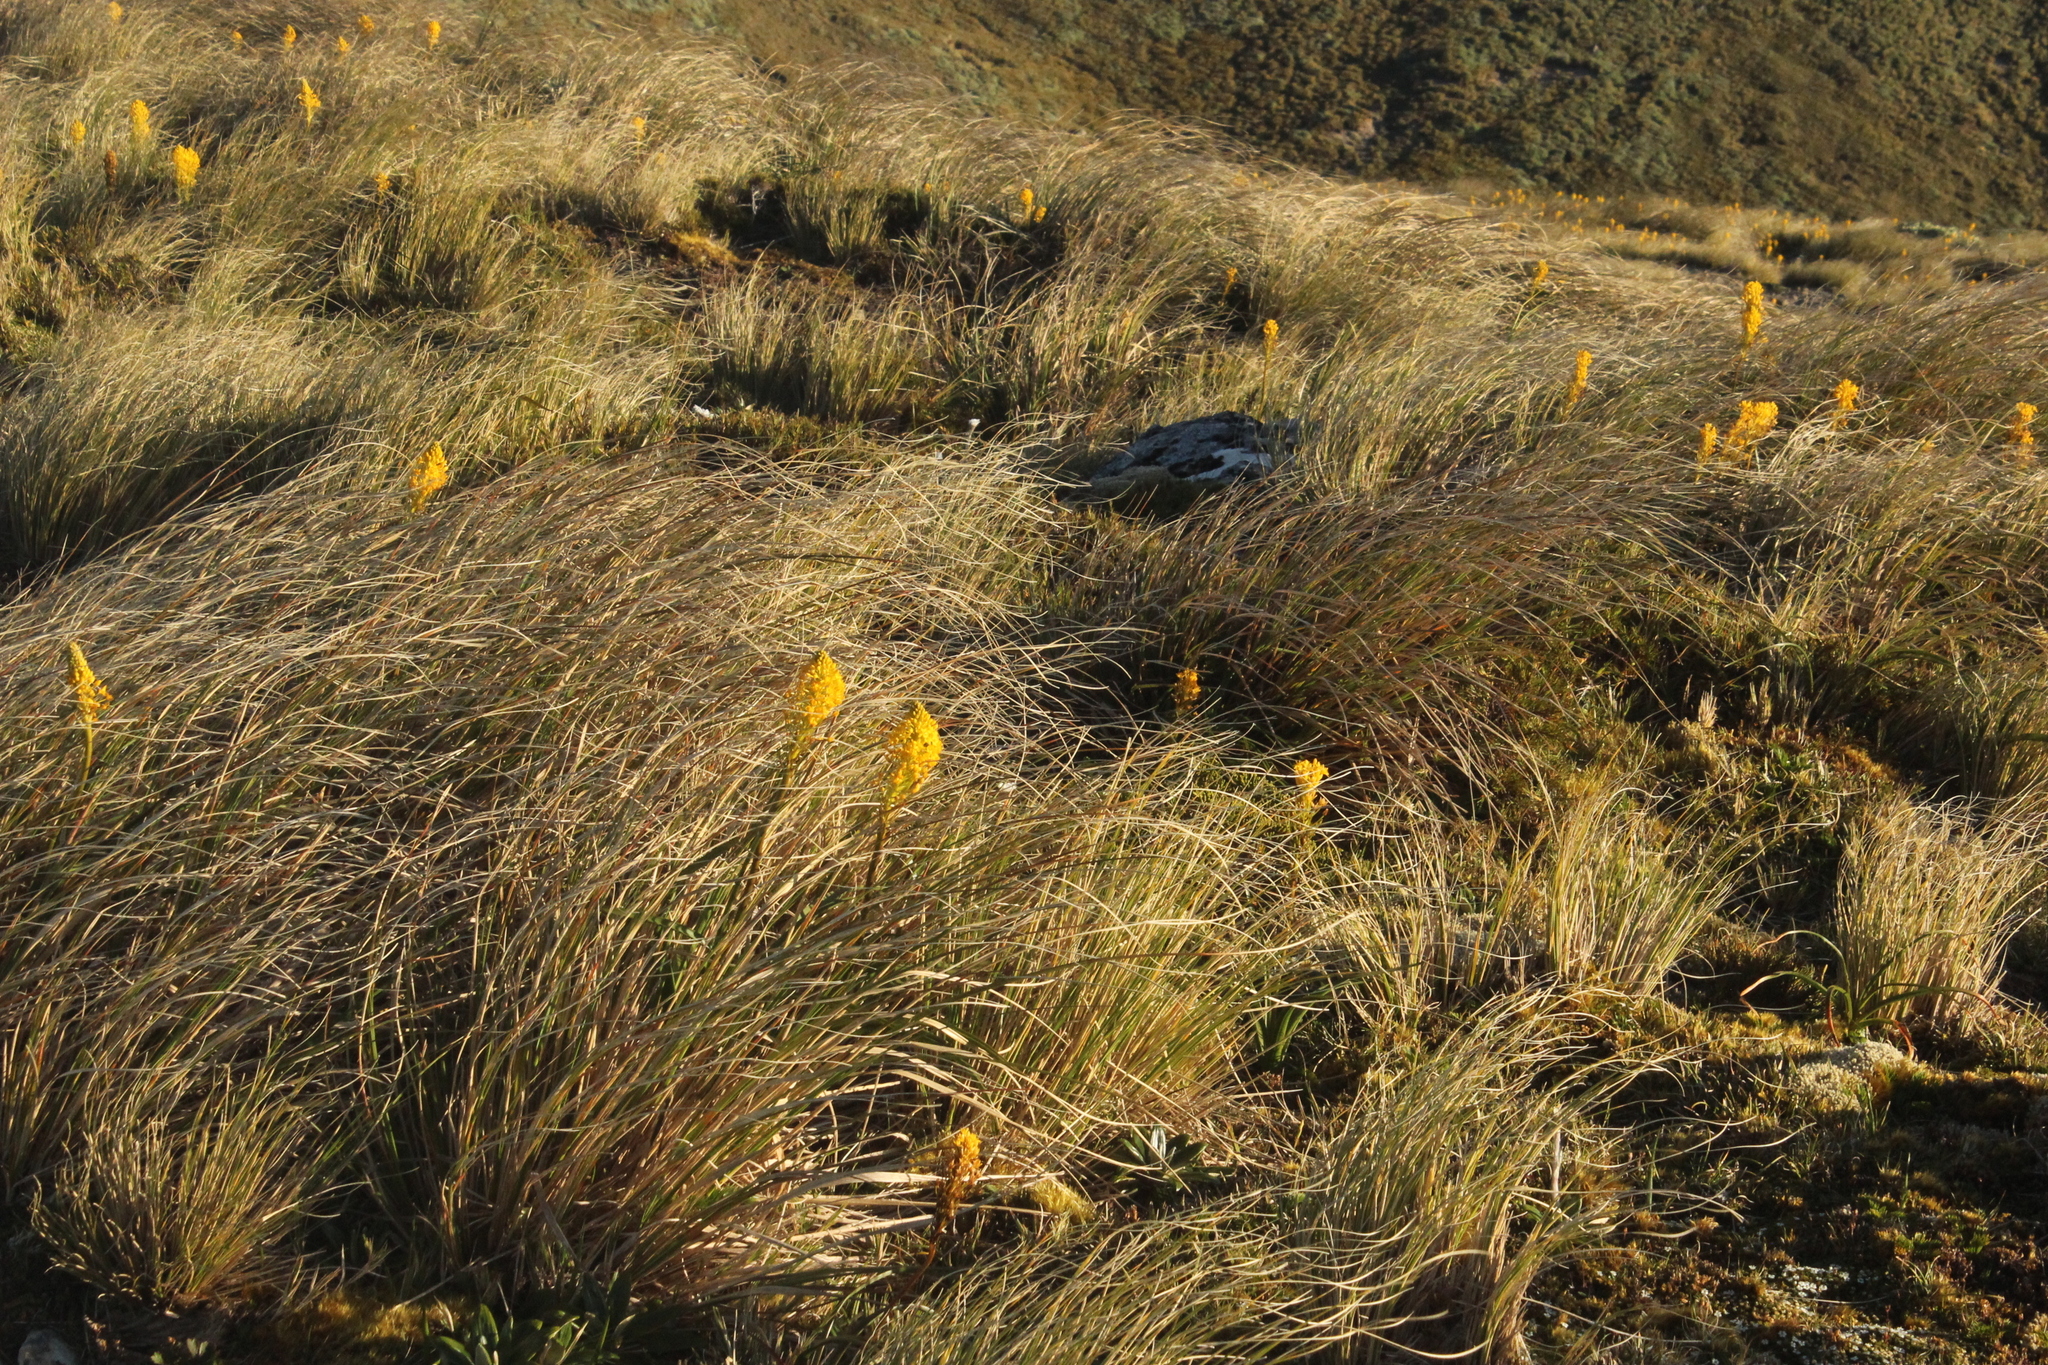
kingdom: Plantae
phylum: Tracheophyta
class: Liliopsida
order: Asparagales
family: Asphodelaceae
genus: Bulbinella
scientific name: Bulbinella hookeri
